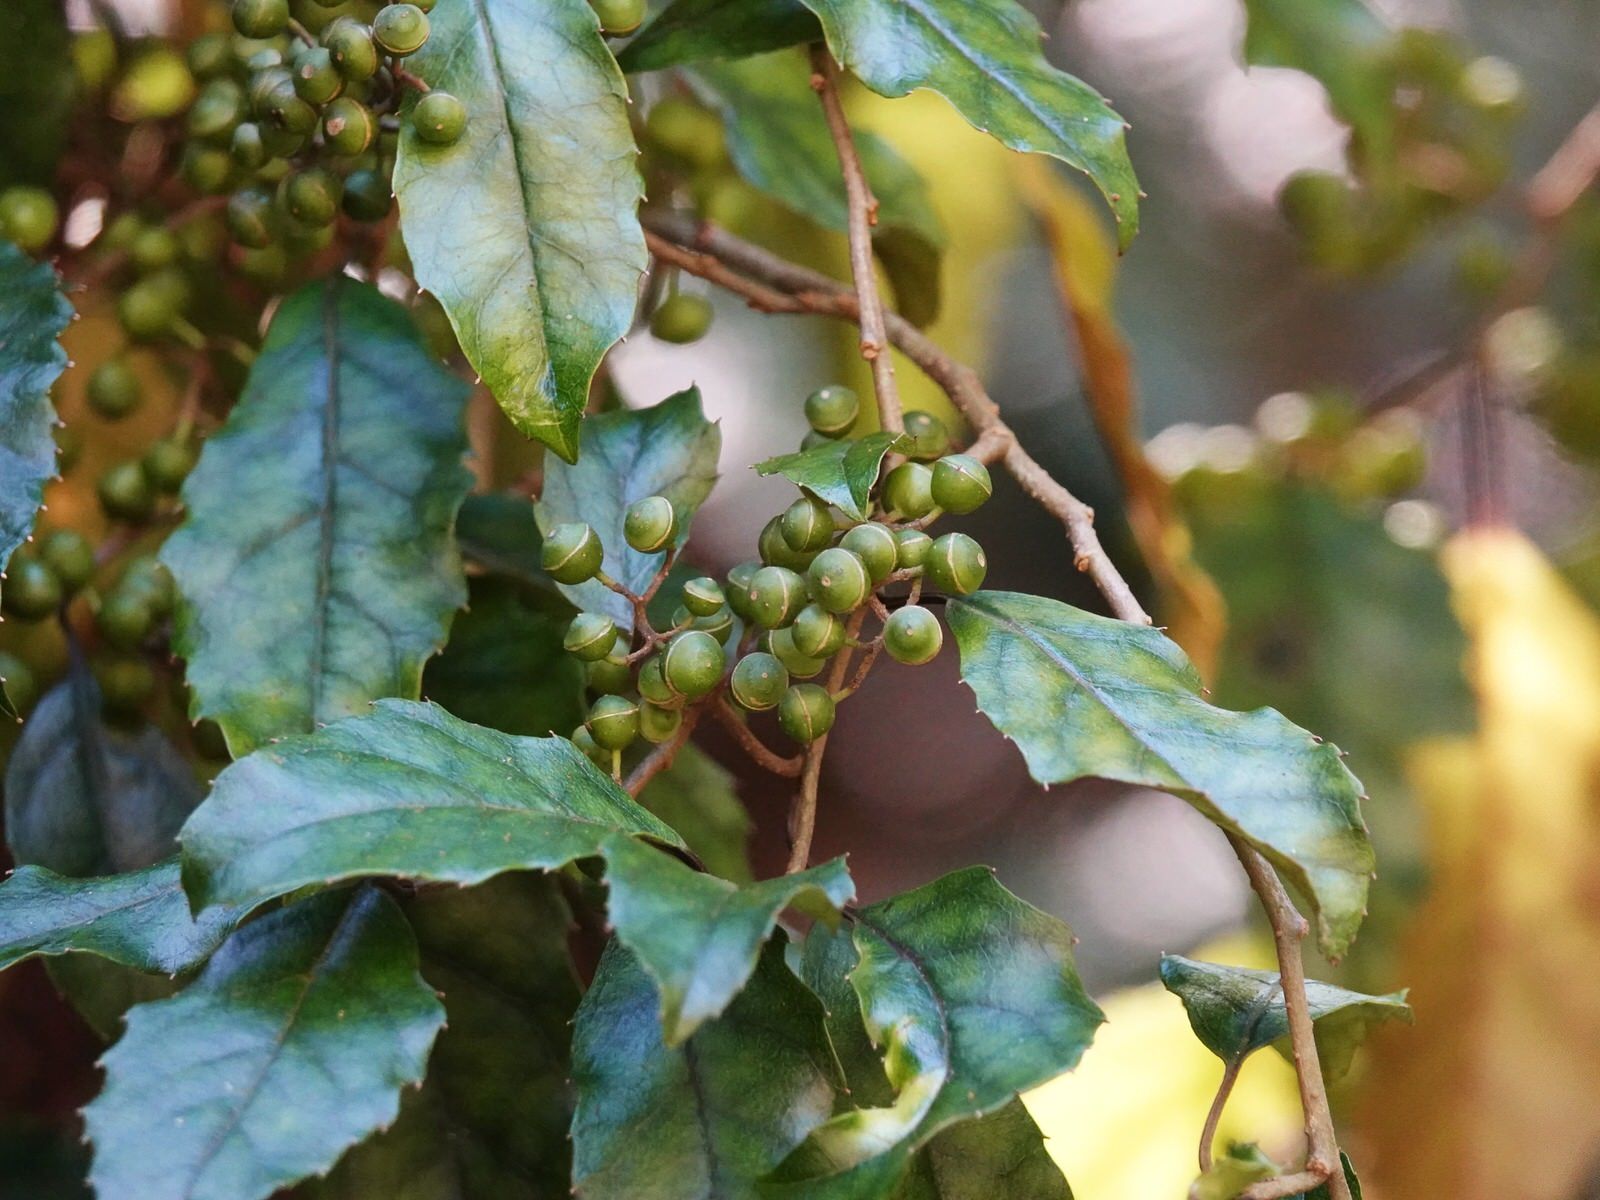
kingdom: Plantae
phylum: Tracheophyta
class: Magnoliopsida
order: Asterales
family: Rousseaceae
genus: Carpodetus
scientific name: Carpodetus serratus
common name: White mapau
